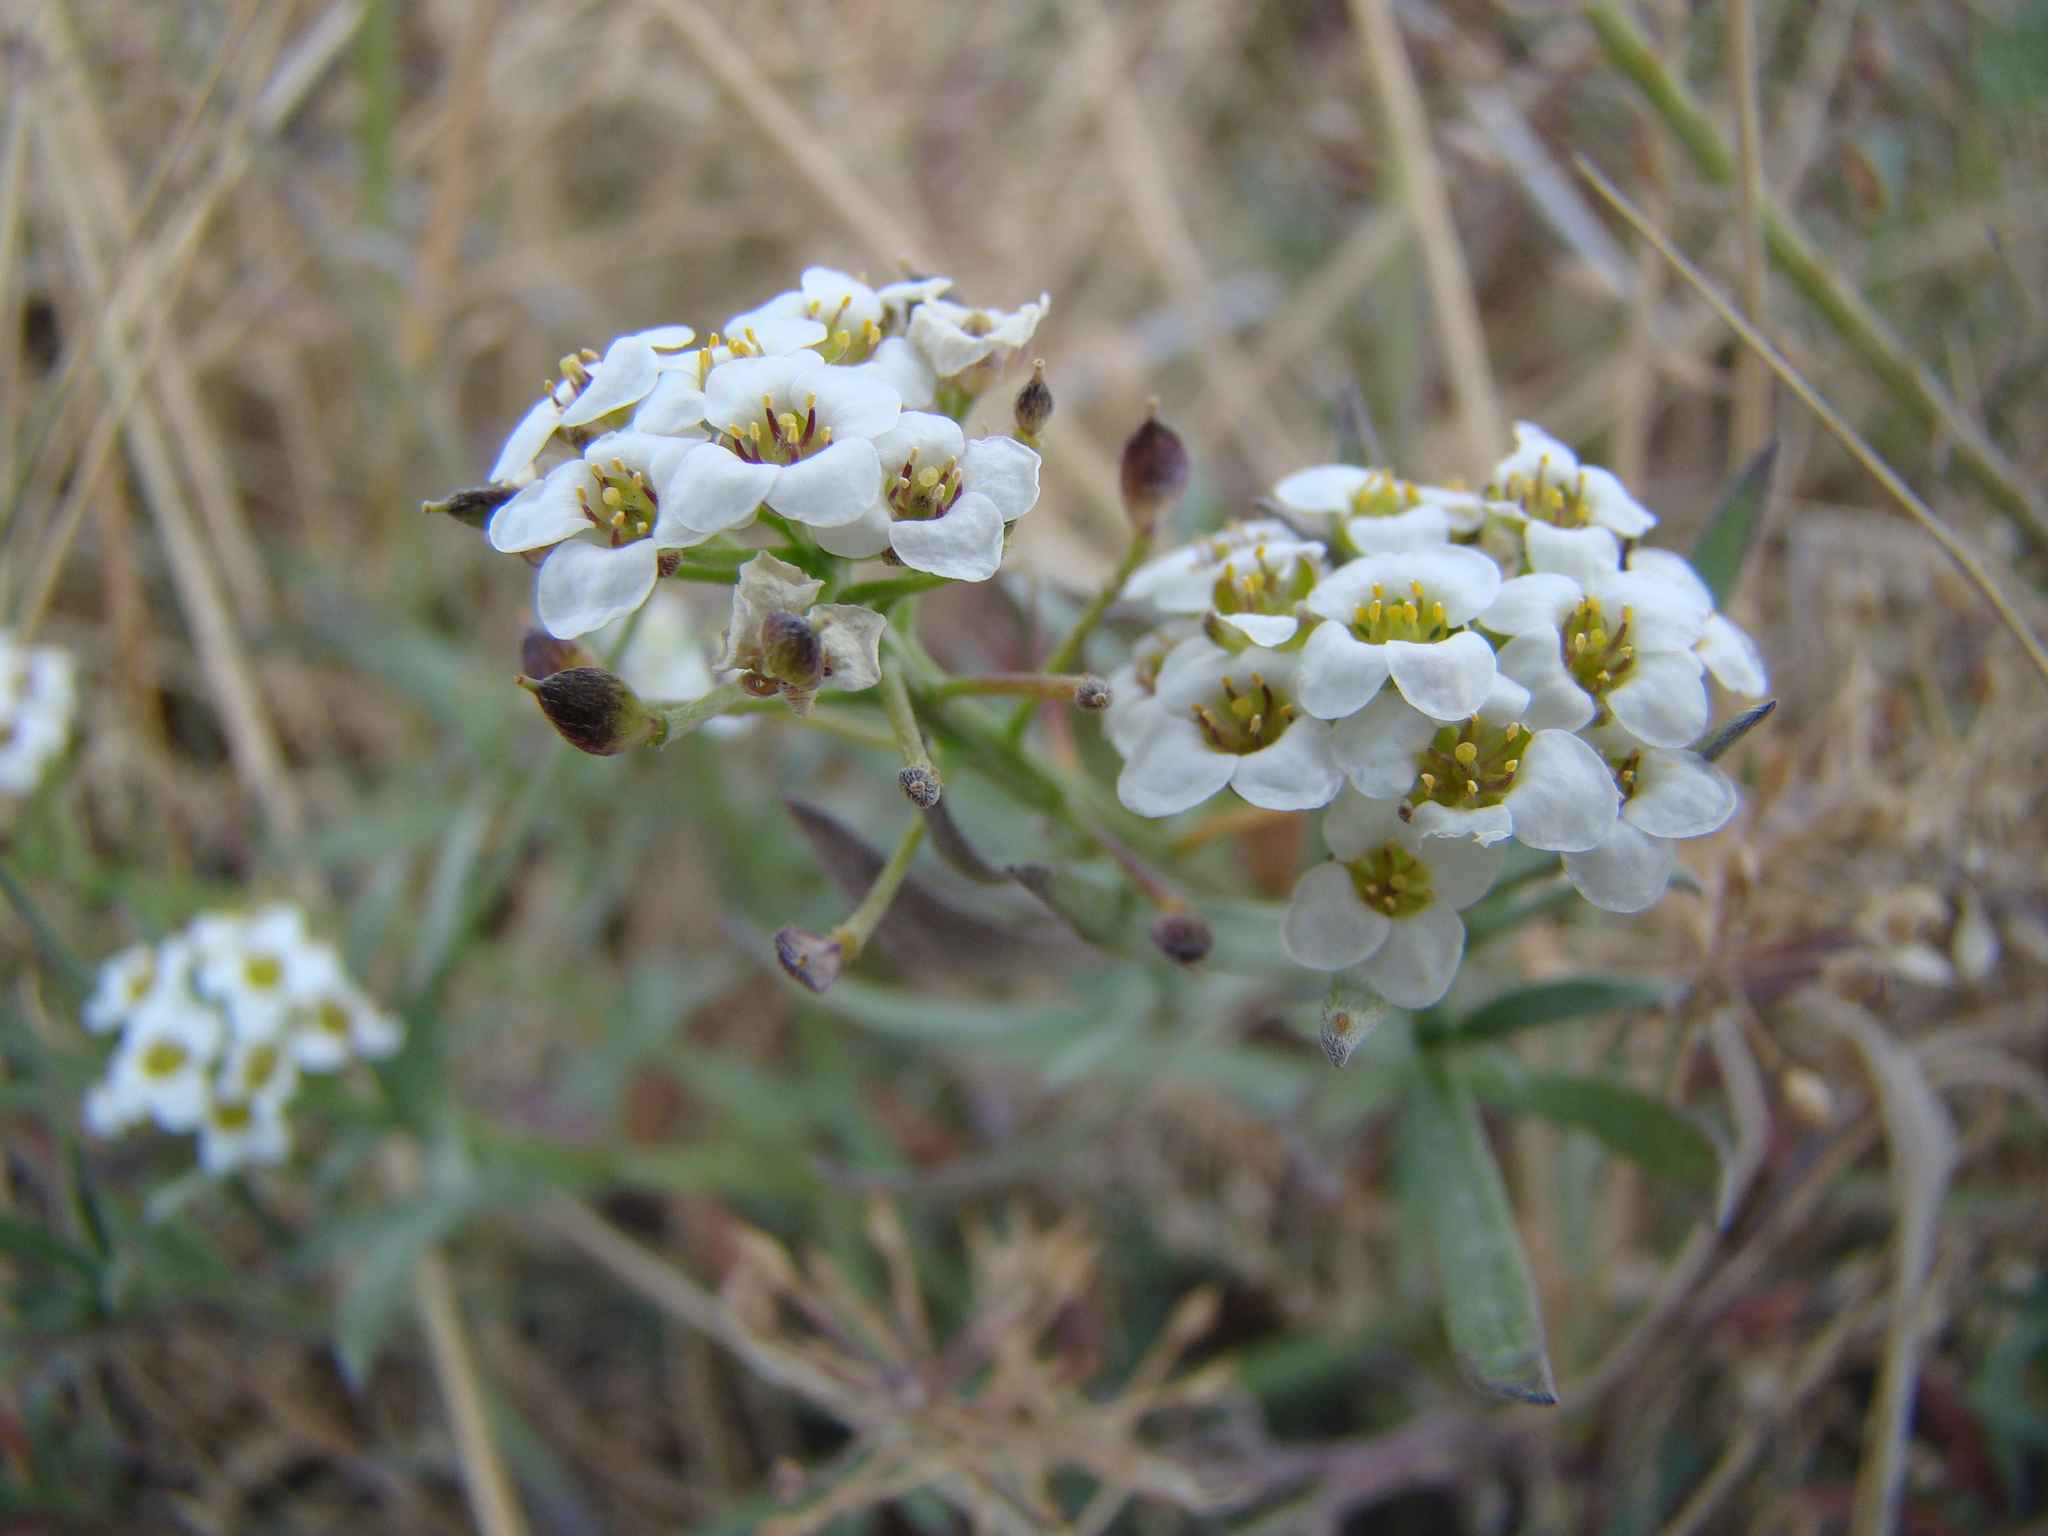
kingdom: Plantae
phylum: Tracheophyta
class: Magnoliopsida
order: Brassicales
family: Brassicaceae
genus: Lobularia
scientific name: Lobularia maritima
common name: Sweet alison
